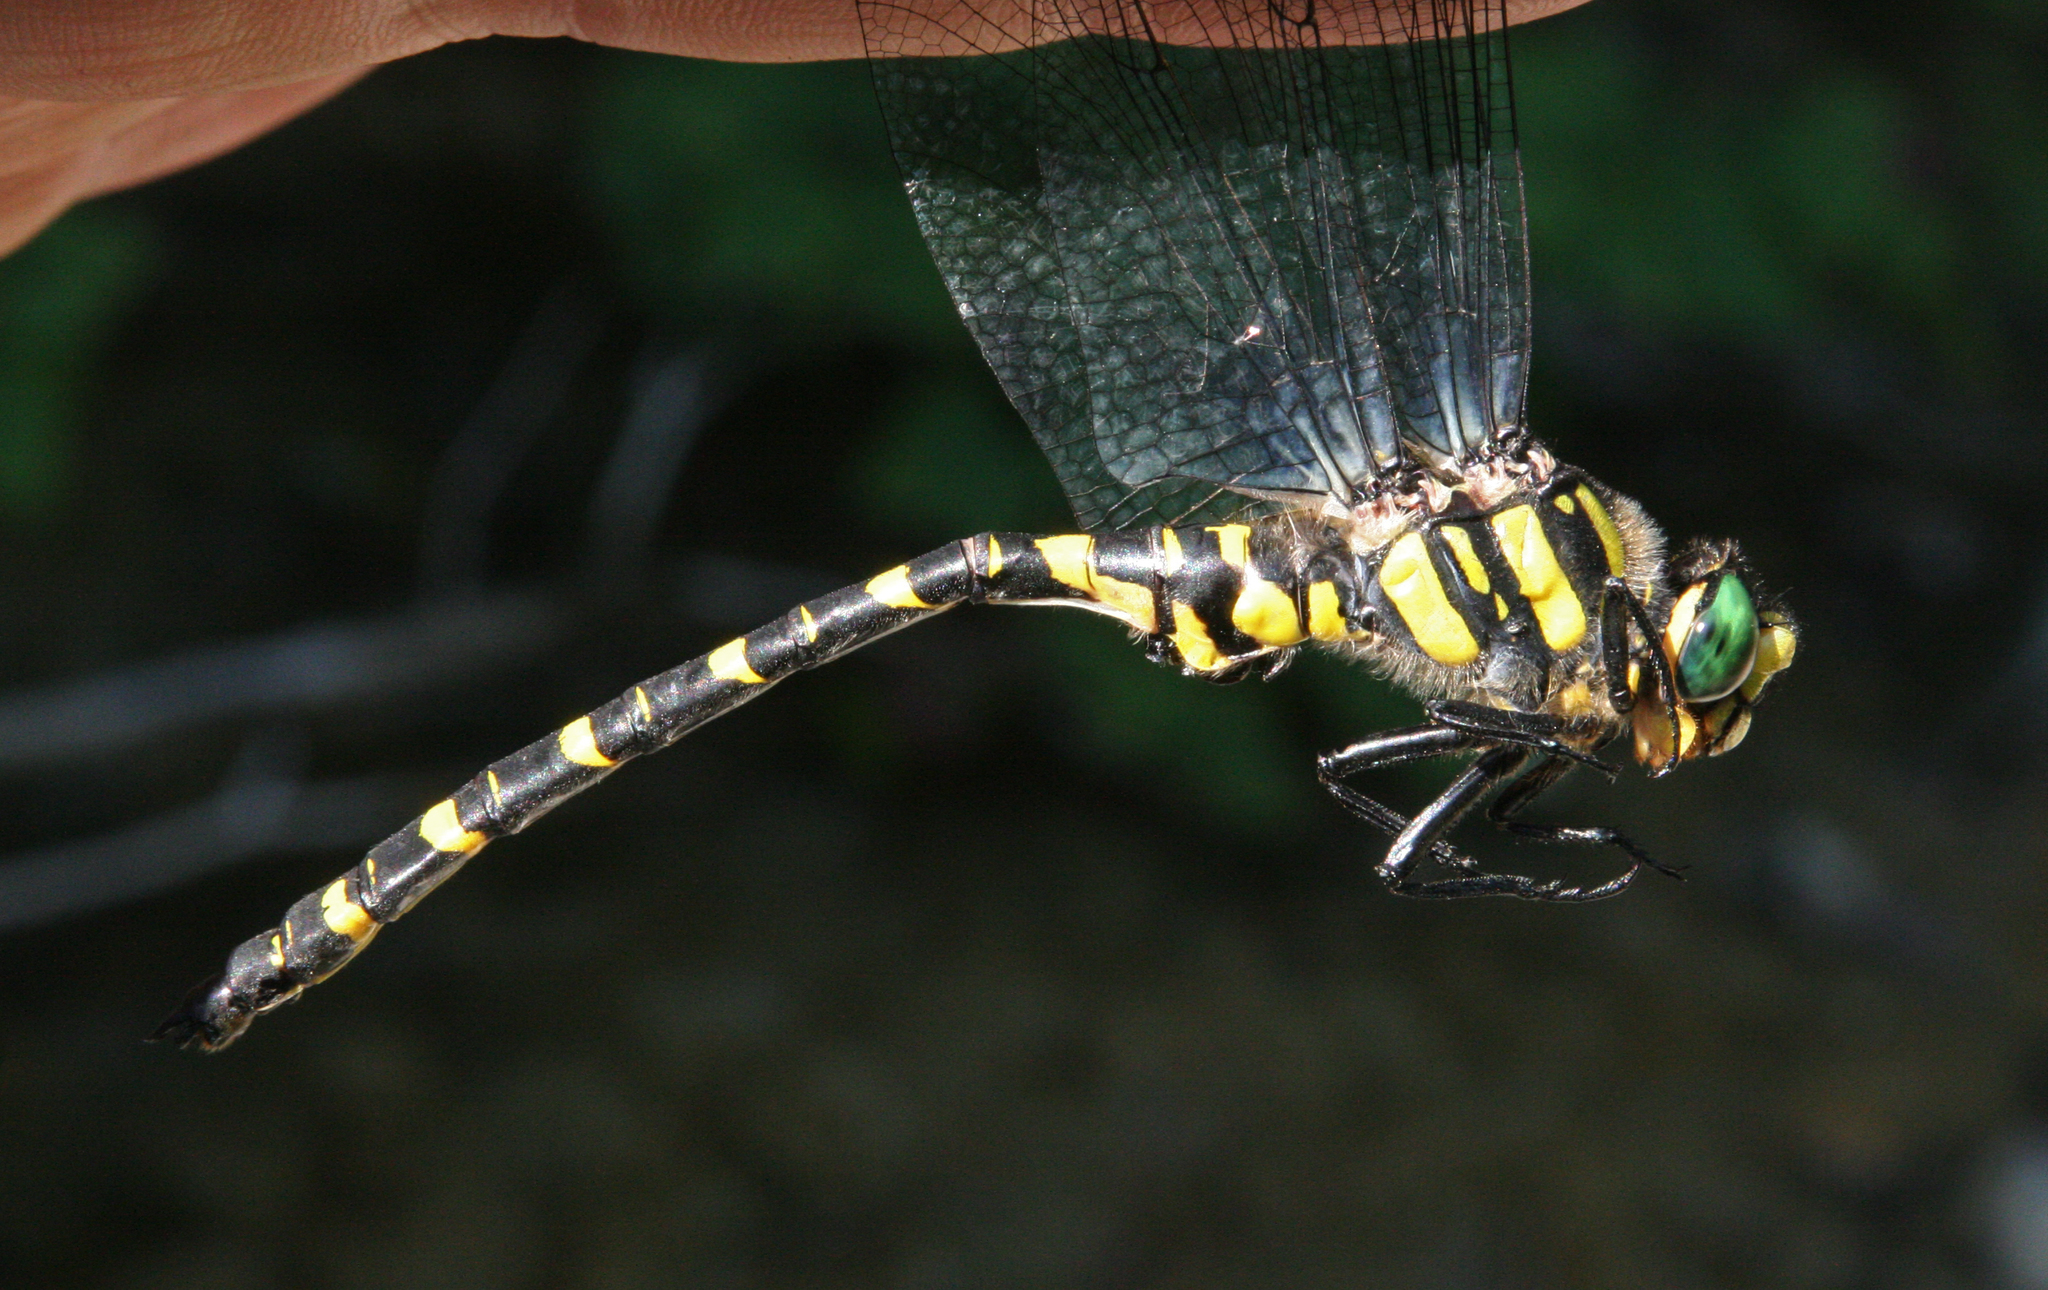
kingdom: Animalia
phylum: Arthropoda
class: Insecta
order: Odonata
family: Cordulegastridae
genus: Cordulegaster
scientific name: Cordulegaster picta
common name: Turkish goldenring
